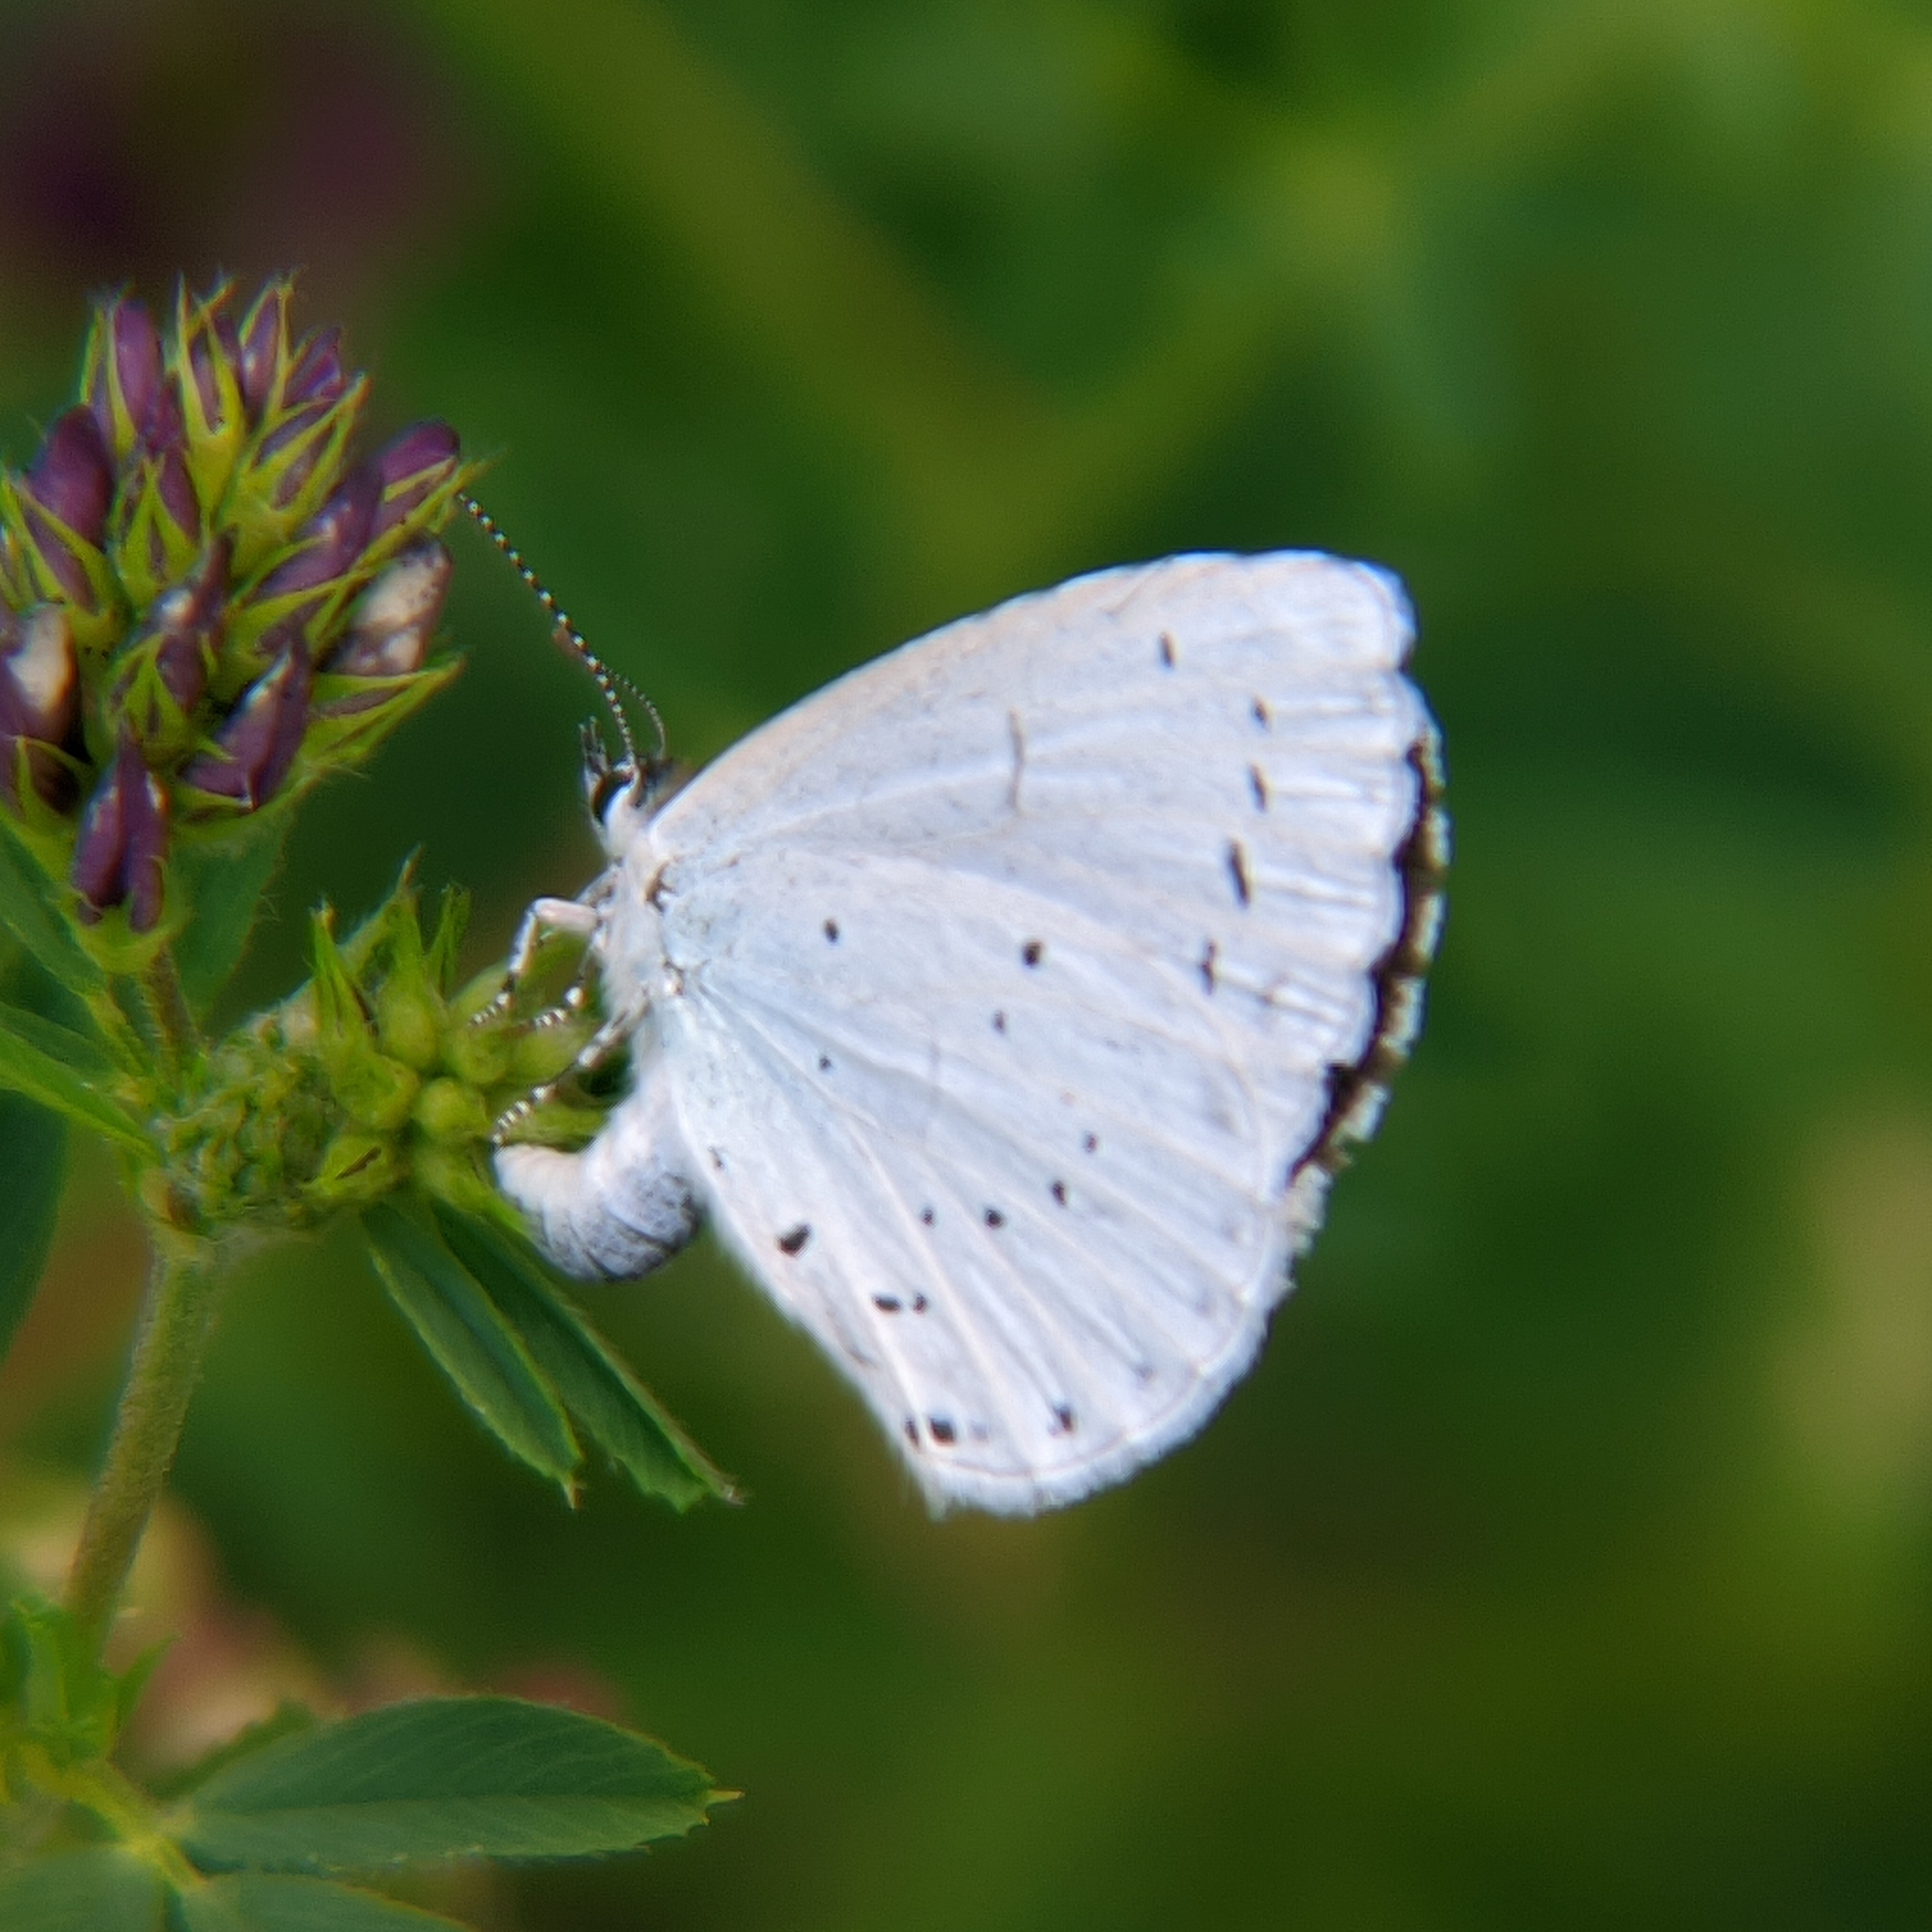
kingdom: Animalia
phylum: Arthropoda
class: Insecta
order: Lepidoptera
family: Lycaenidae
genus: Celastrina
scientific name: Celastrina argiolus
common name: Holly blue
